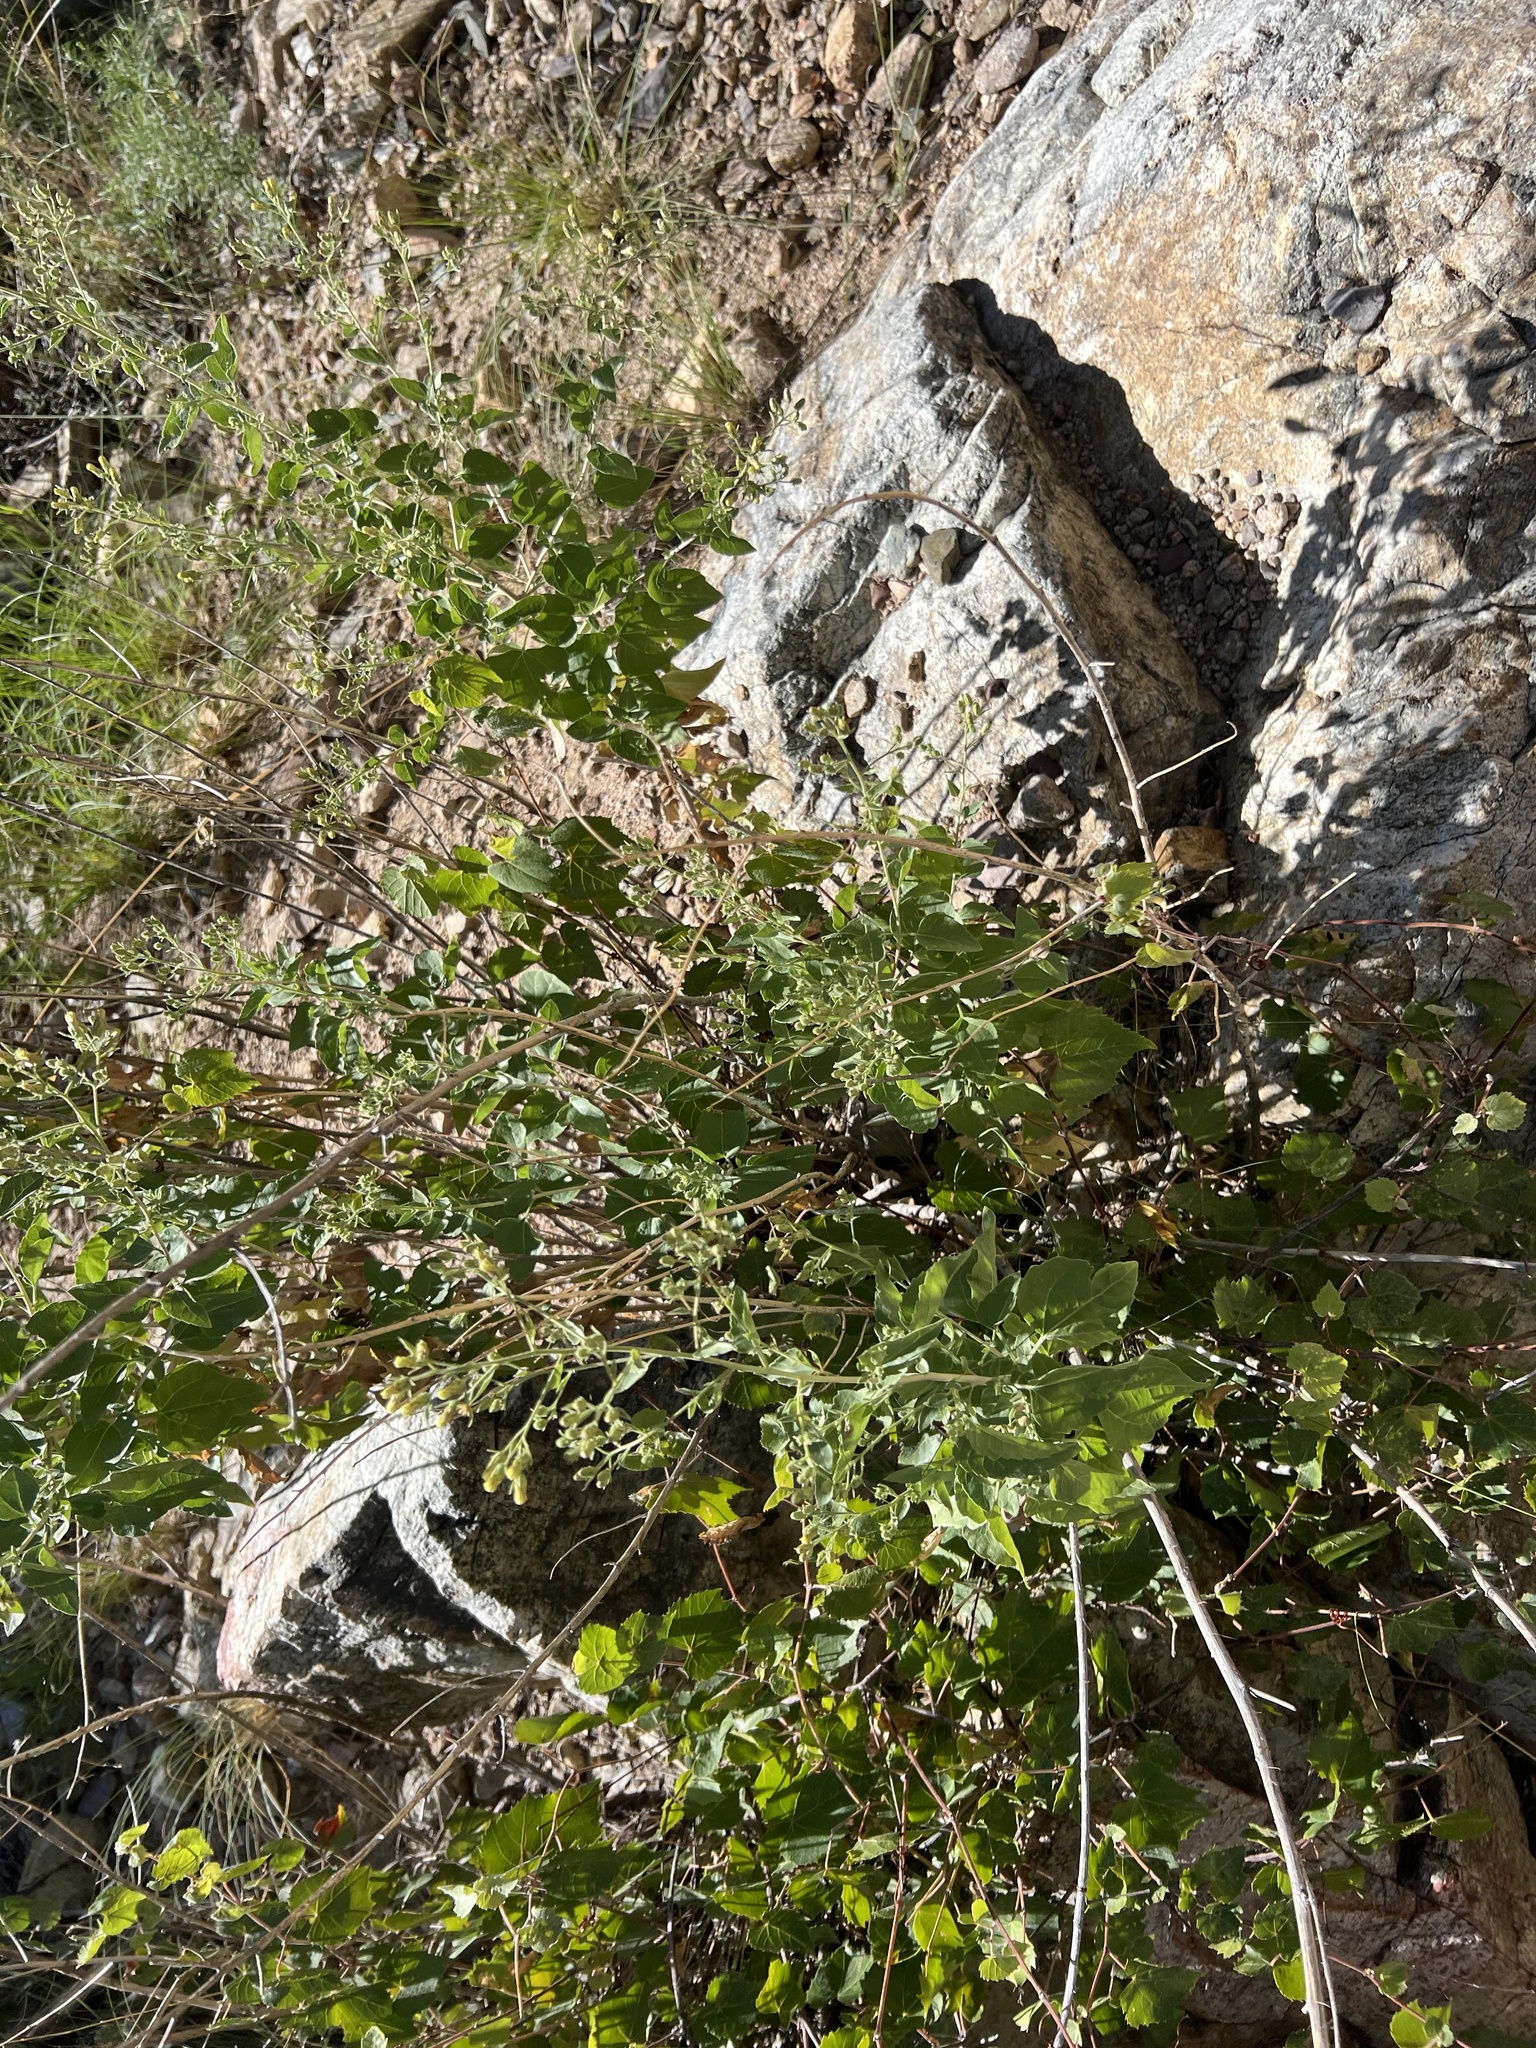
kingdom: Plantae
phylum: Tracheophyta
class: Magnoliopsida
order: Vitales
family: Vitaceae
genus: Vitis
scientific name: Vitis arizonica
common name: Canyon grape
